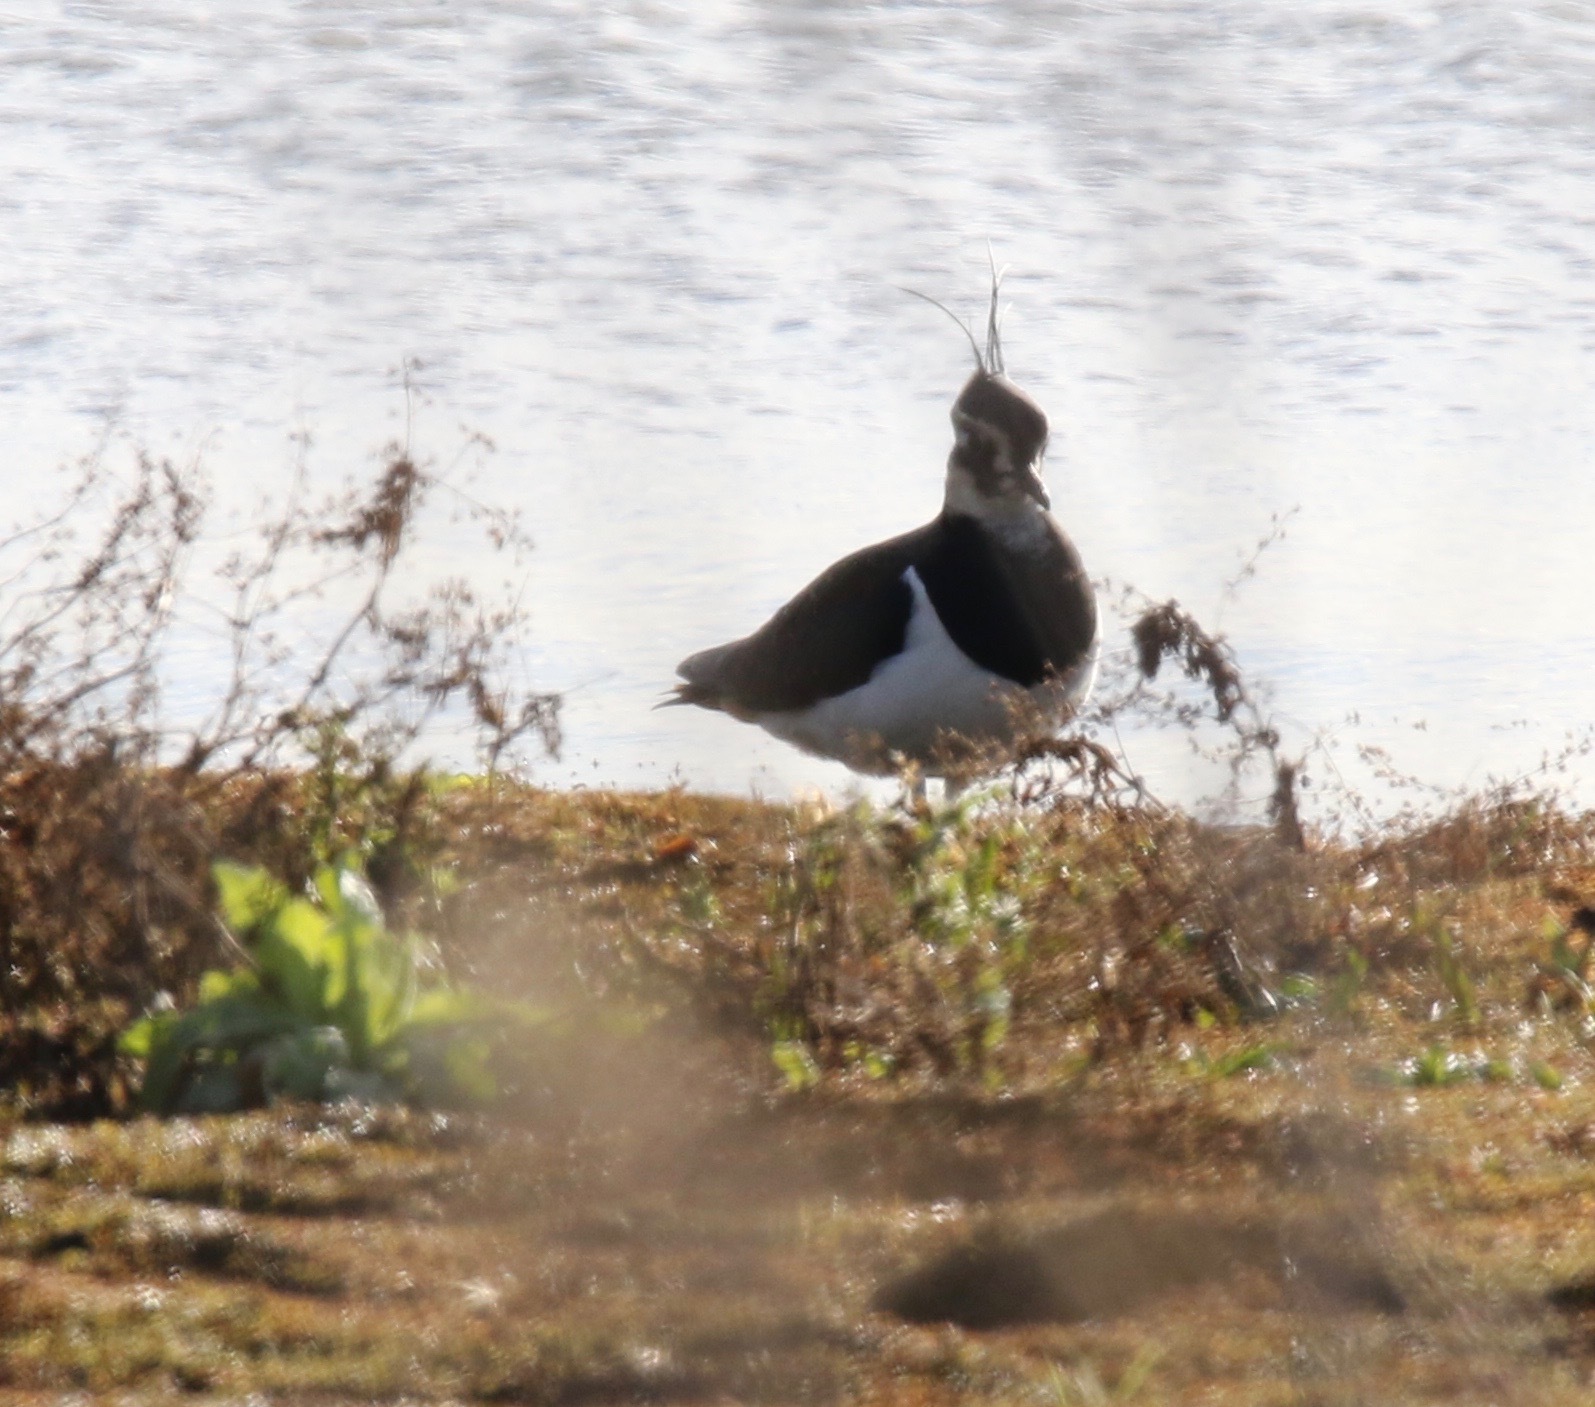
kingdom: Animalia
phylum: Chordata
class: Aves
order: Charadriiformes
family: Charadriidae
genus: Vanellus
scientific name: Vanellus vanellus
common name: Northern lapwing
